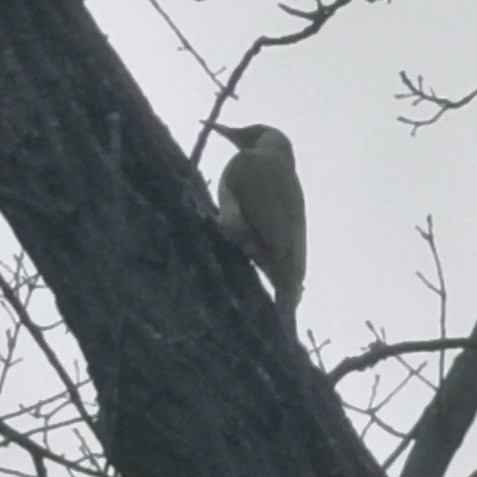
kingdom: Animalia
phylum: Chordata
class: Aves
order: Piciformes
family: Picidae
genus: Picus
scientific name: Picus viridis
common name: European green woodpecker
